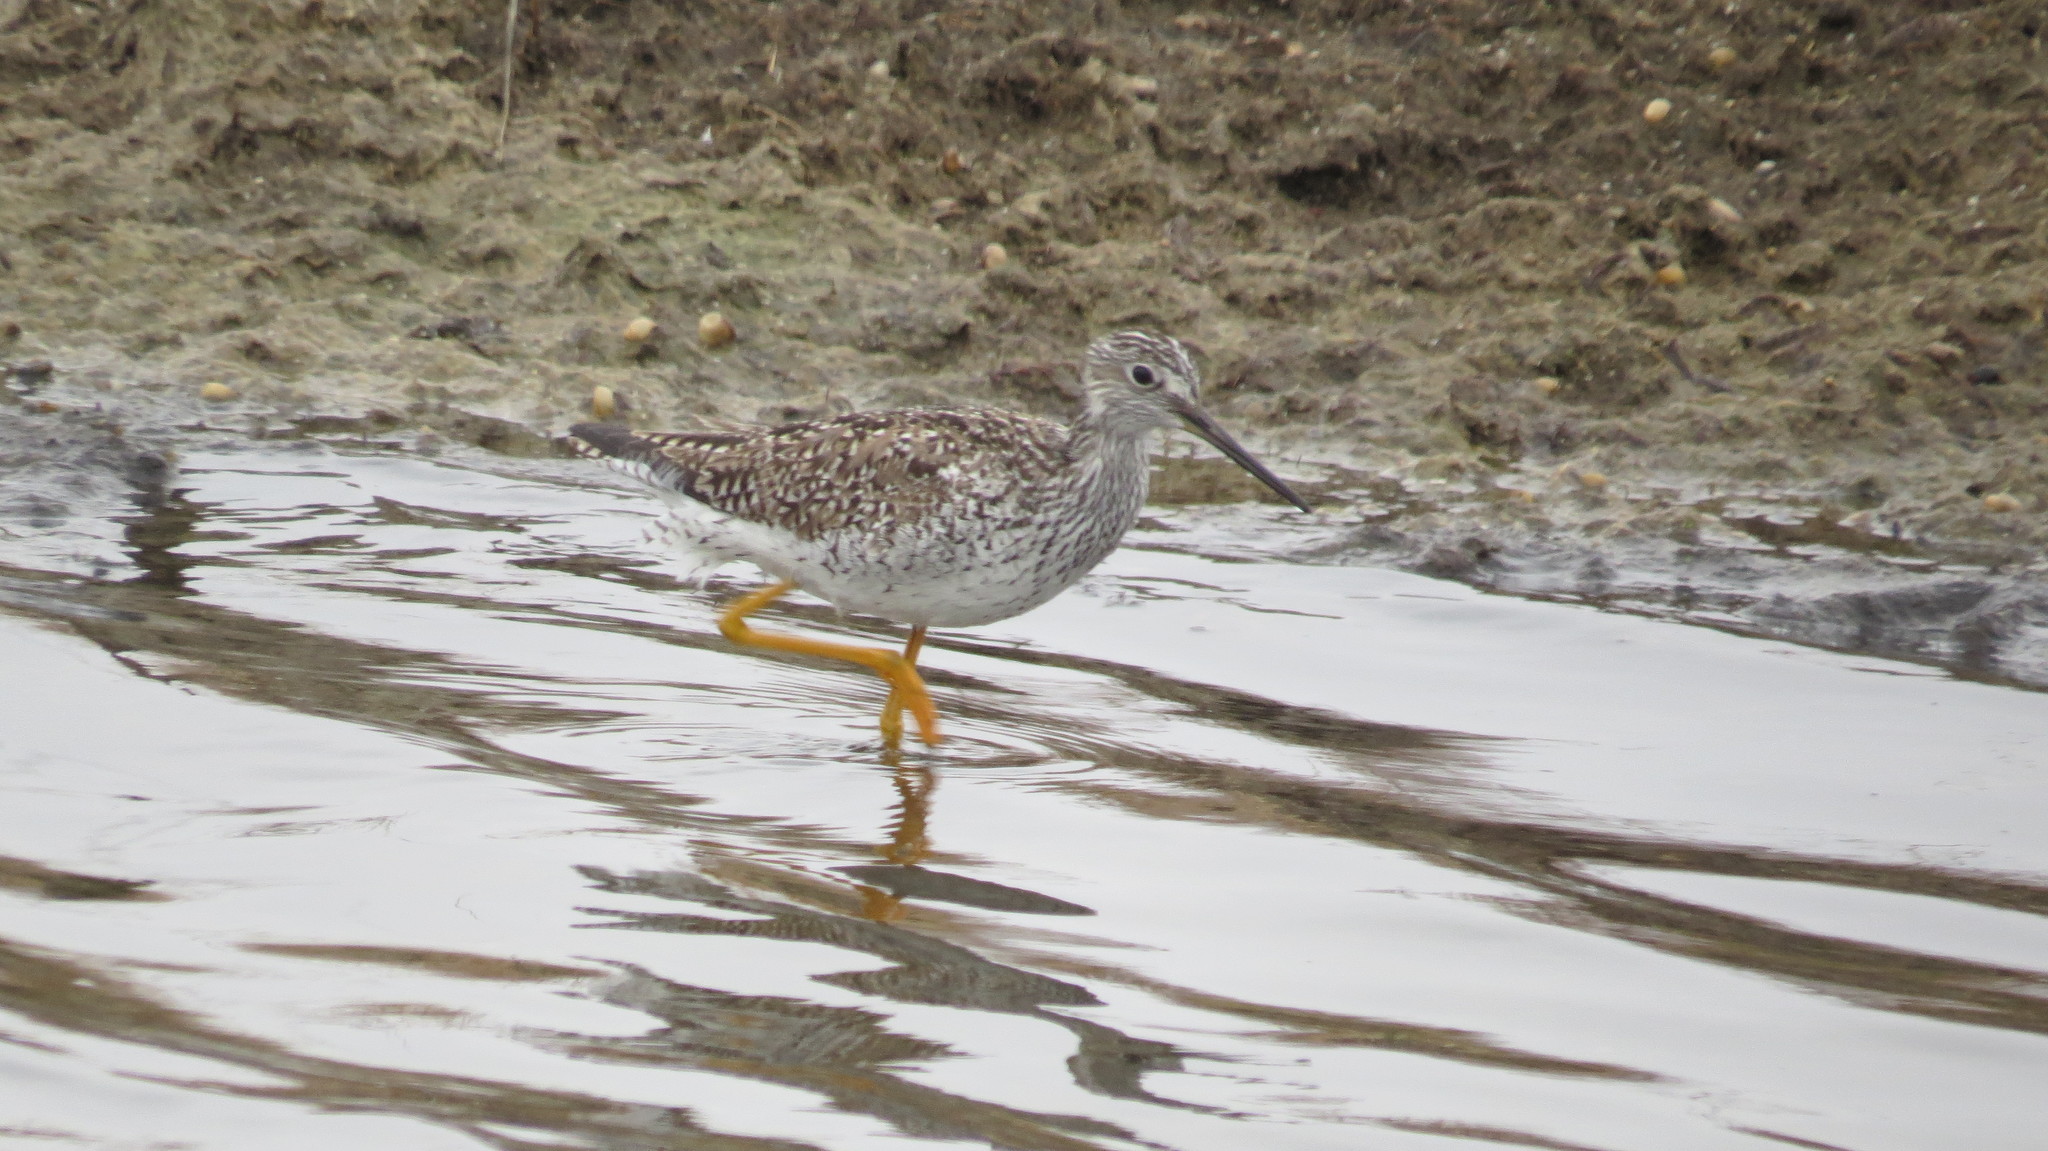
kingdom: Animalia
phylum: Chordata
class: Aves
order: Charadriiformes
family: Scolopacidae
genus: Tringa
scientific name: Tringa melanoleuca
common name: Greater yellowlegs
